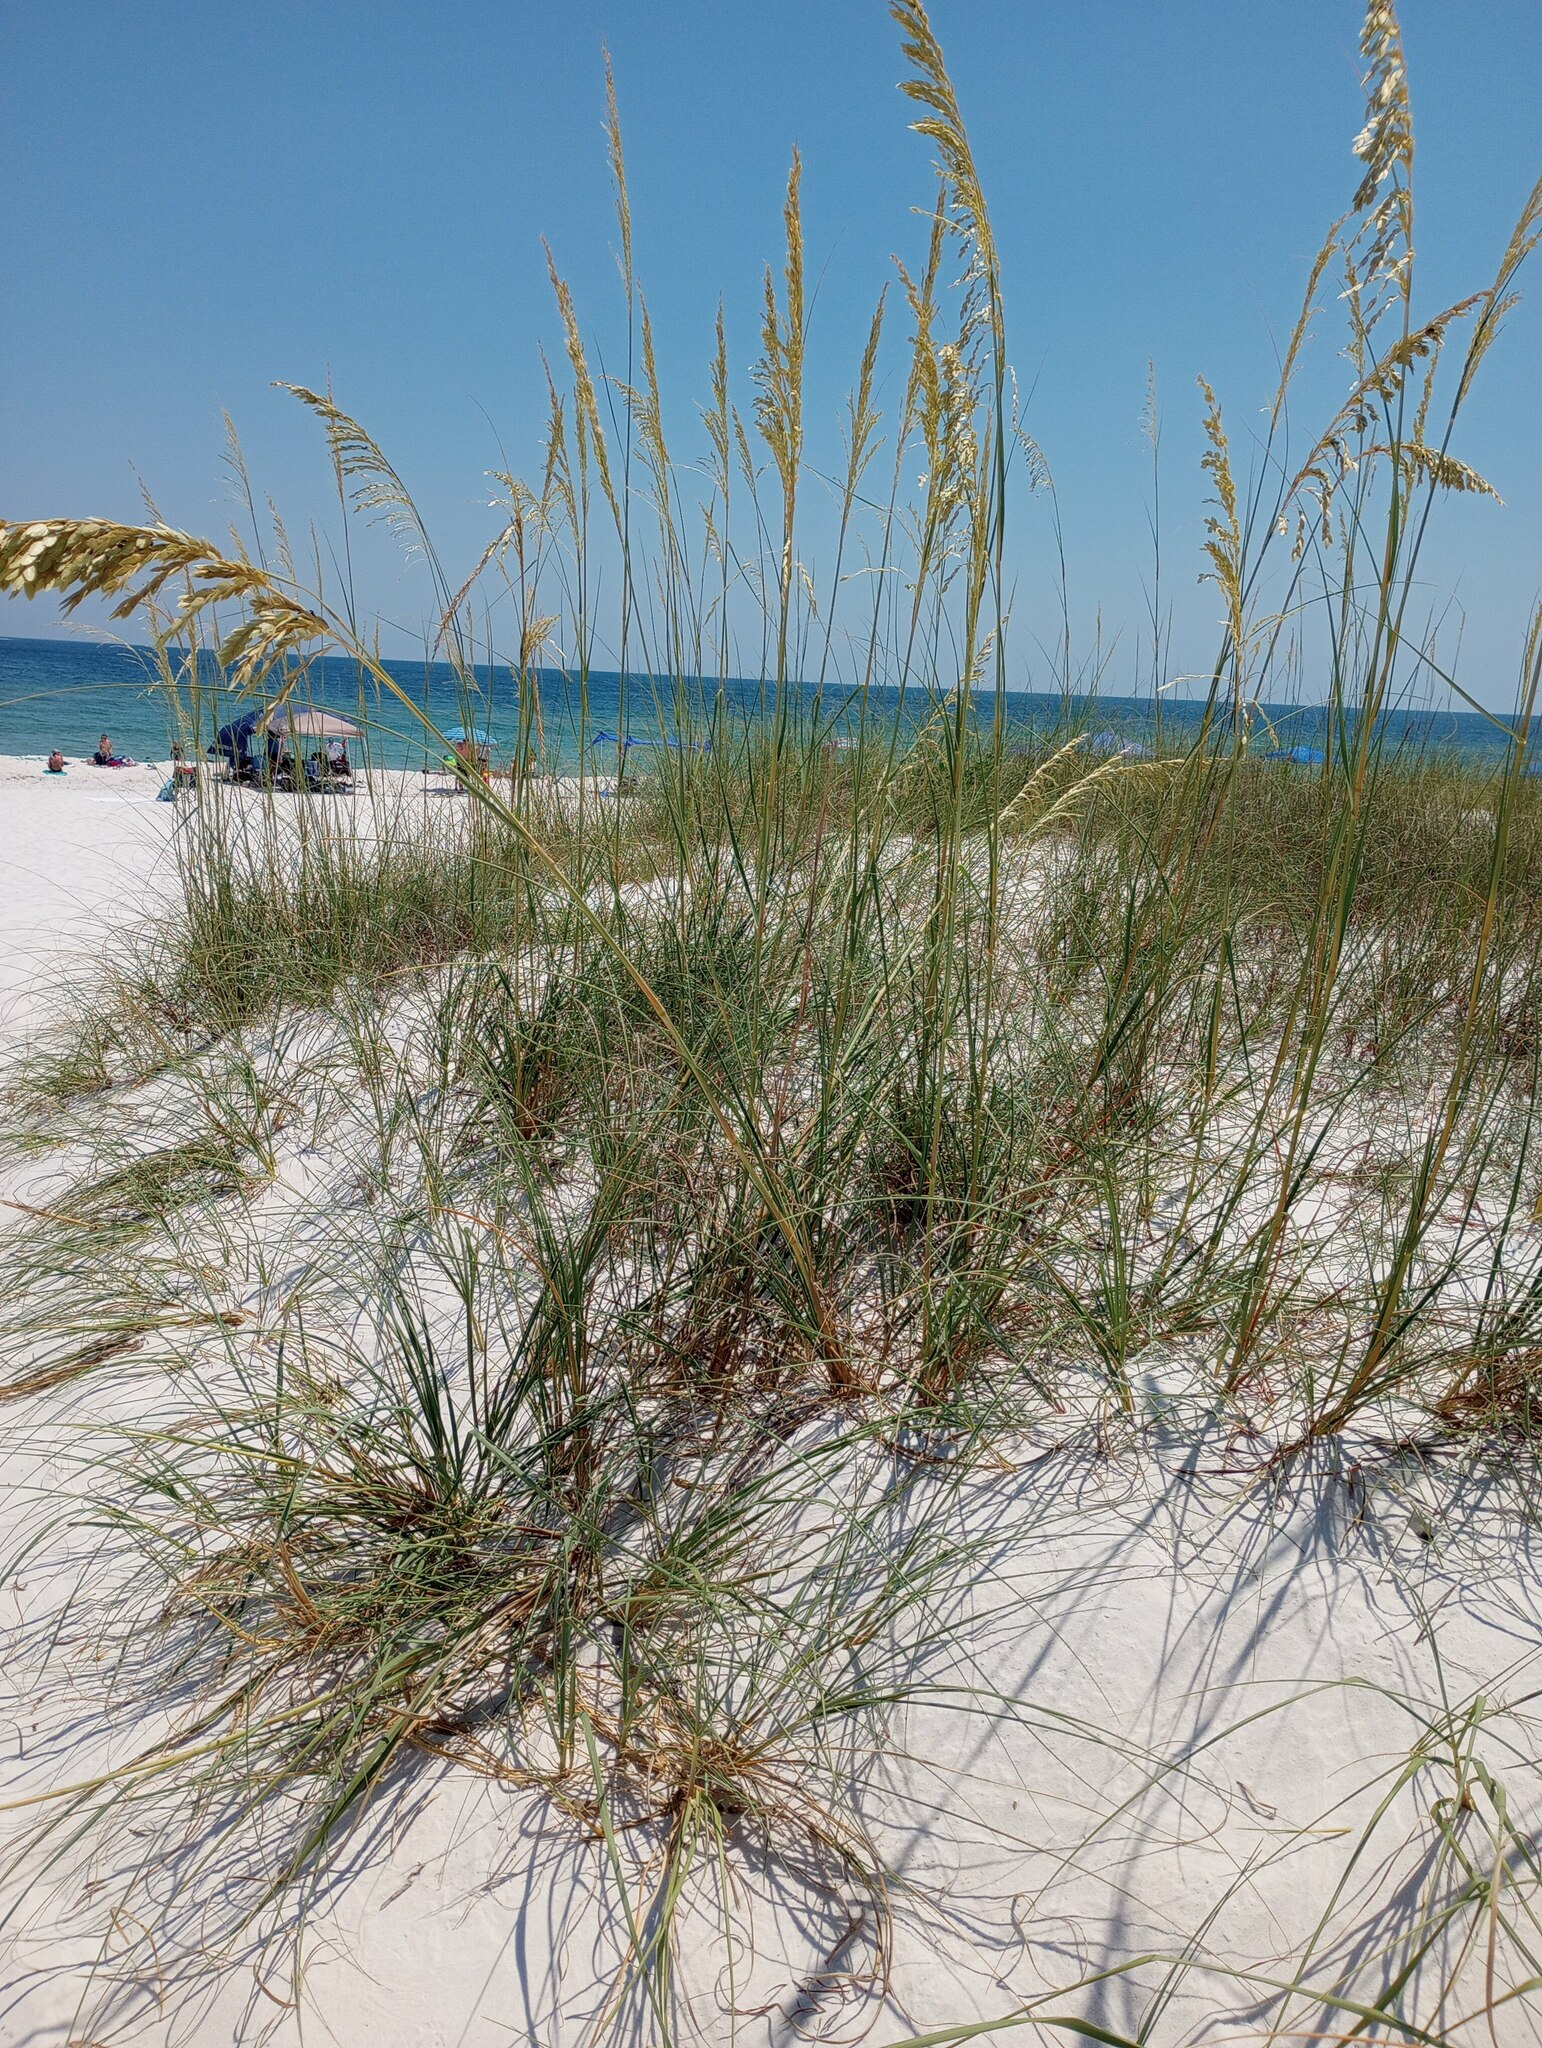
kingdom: Plantae
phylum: Tracheophyta
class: Liliopsida
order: Poales
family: Poaceae
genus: Uniola
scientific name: Uniola paniculata
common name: Seaside-oats
